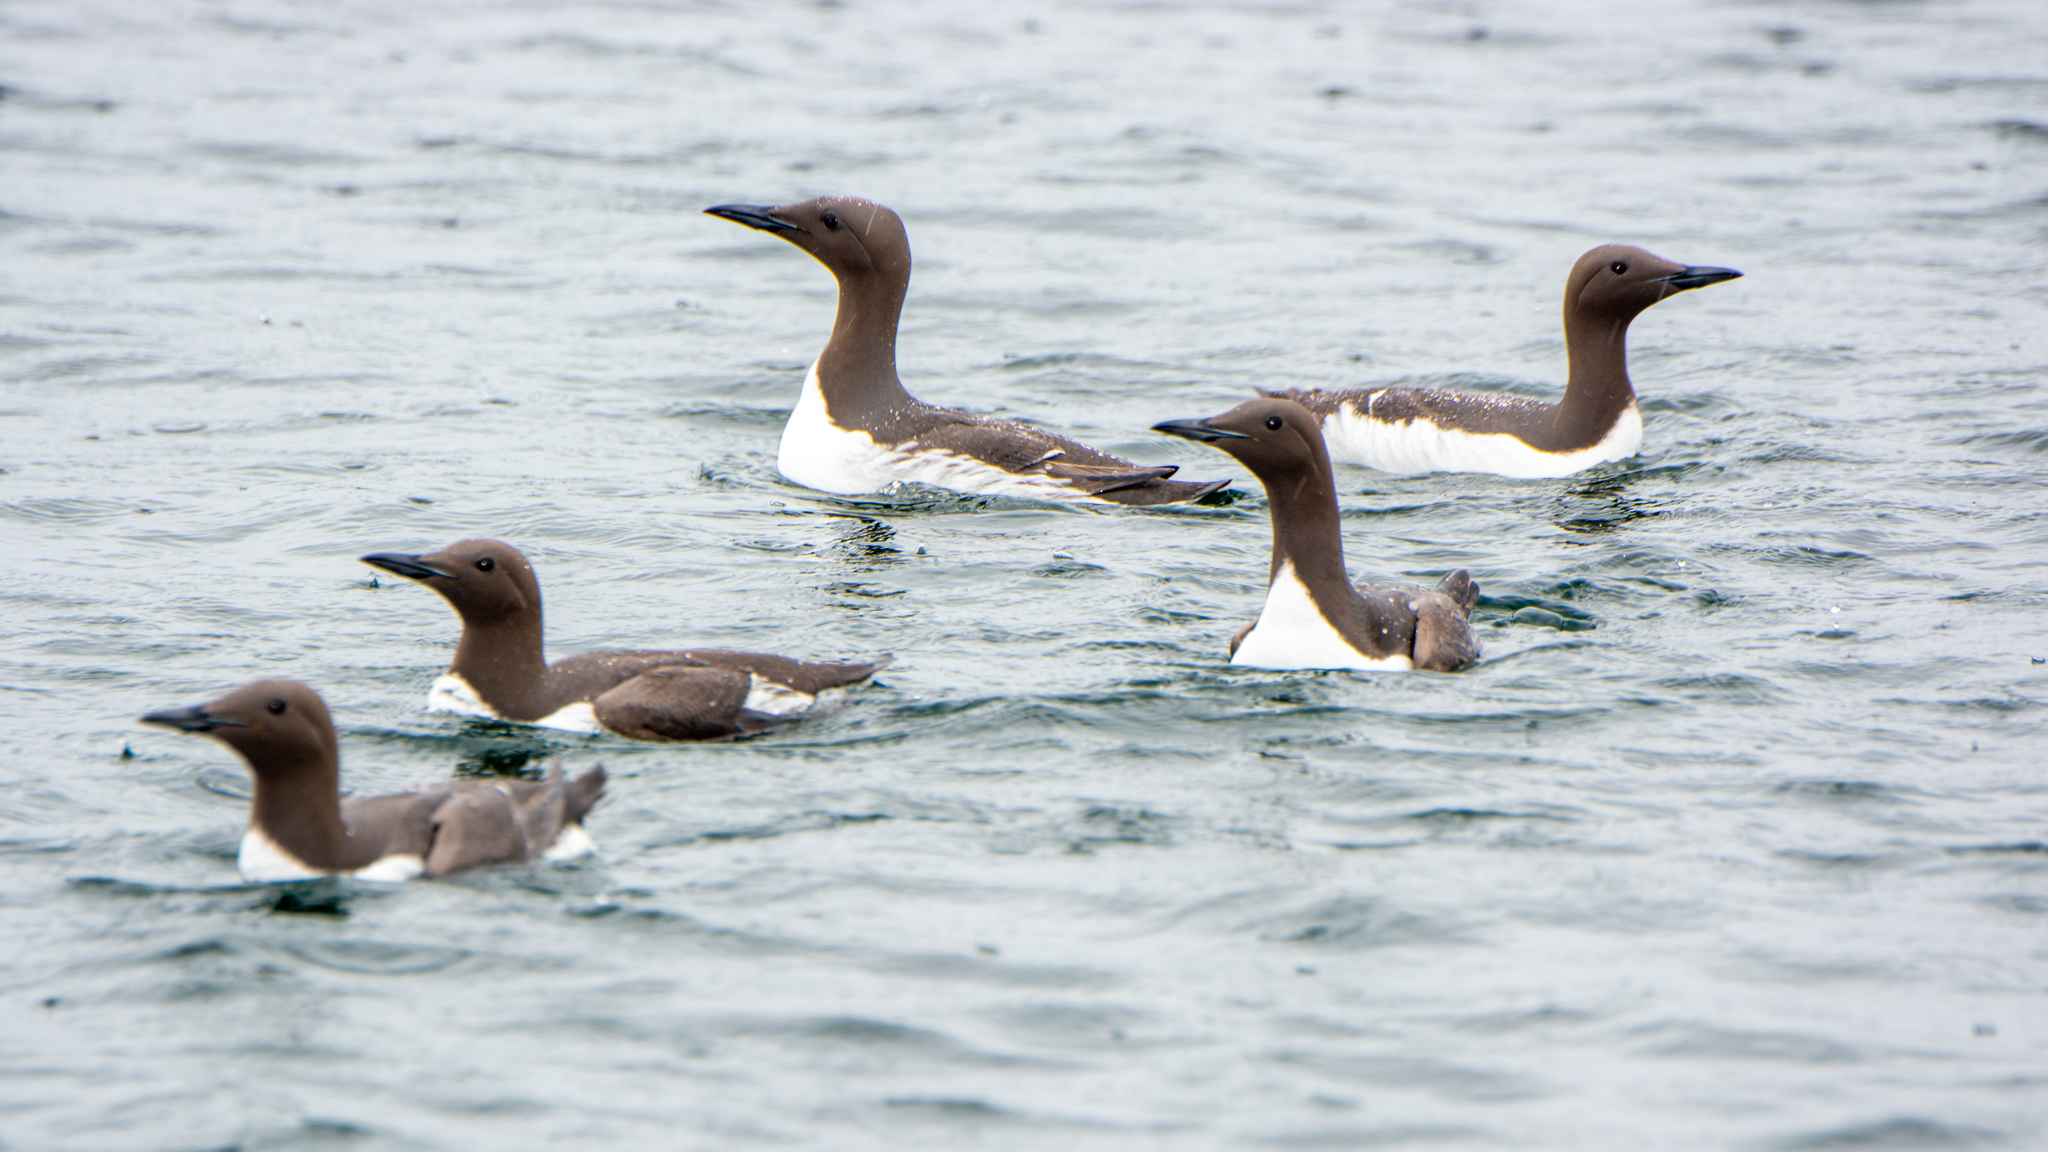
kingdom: Animalia
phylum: Chordata
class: Aves
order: Charadriiformes
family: Alcidae
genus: Uria
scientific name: Uria aalge
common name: Common murre
